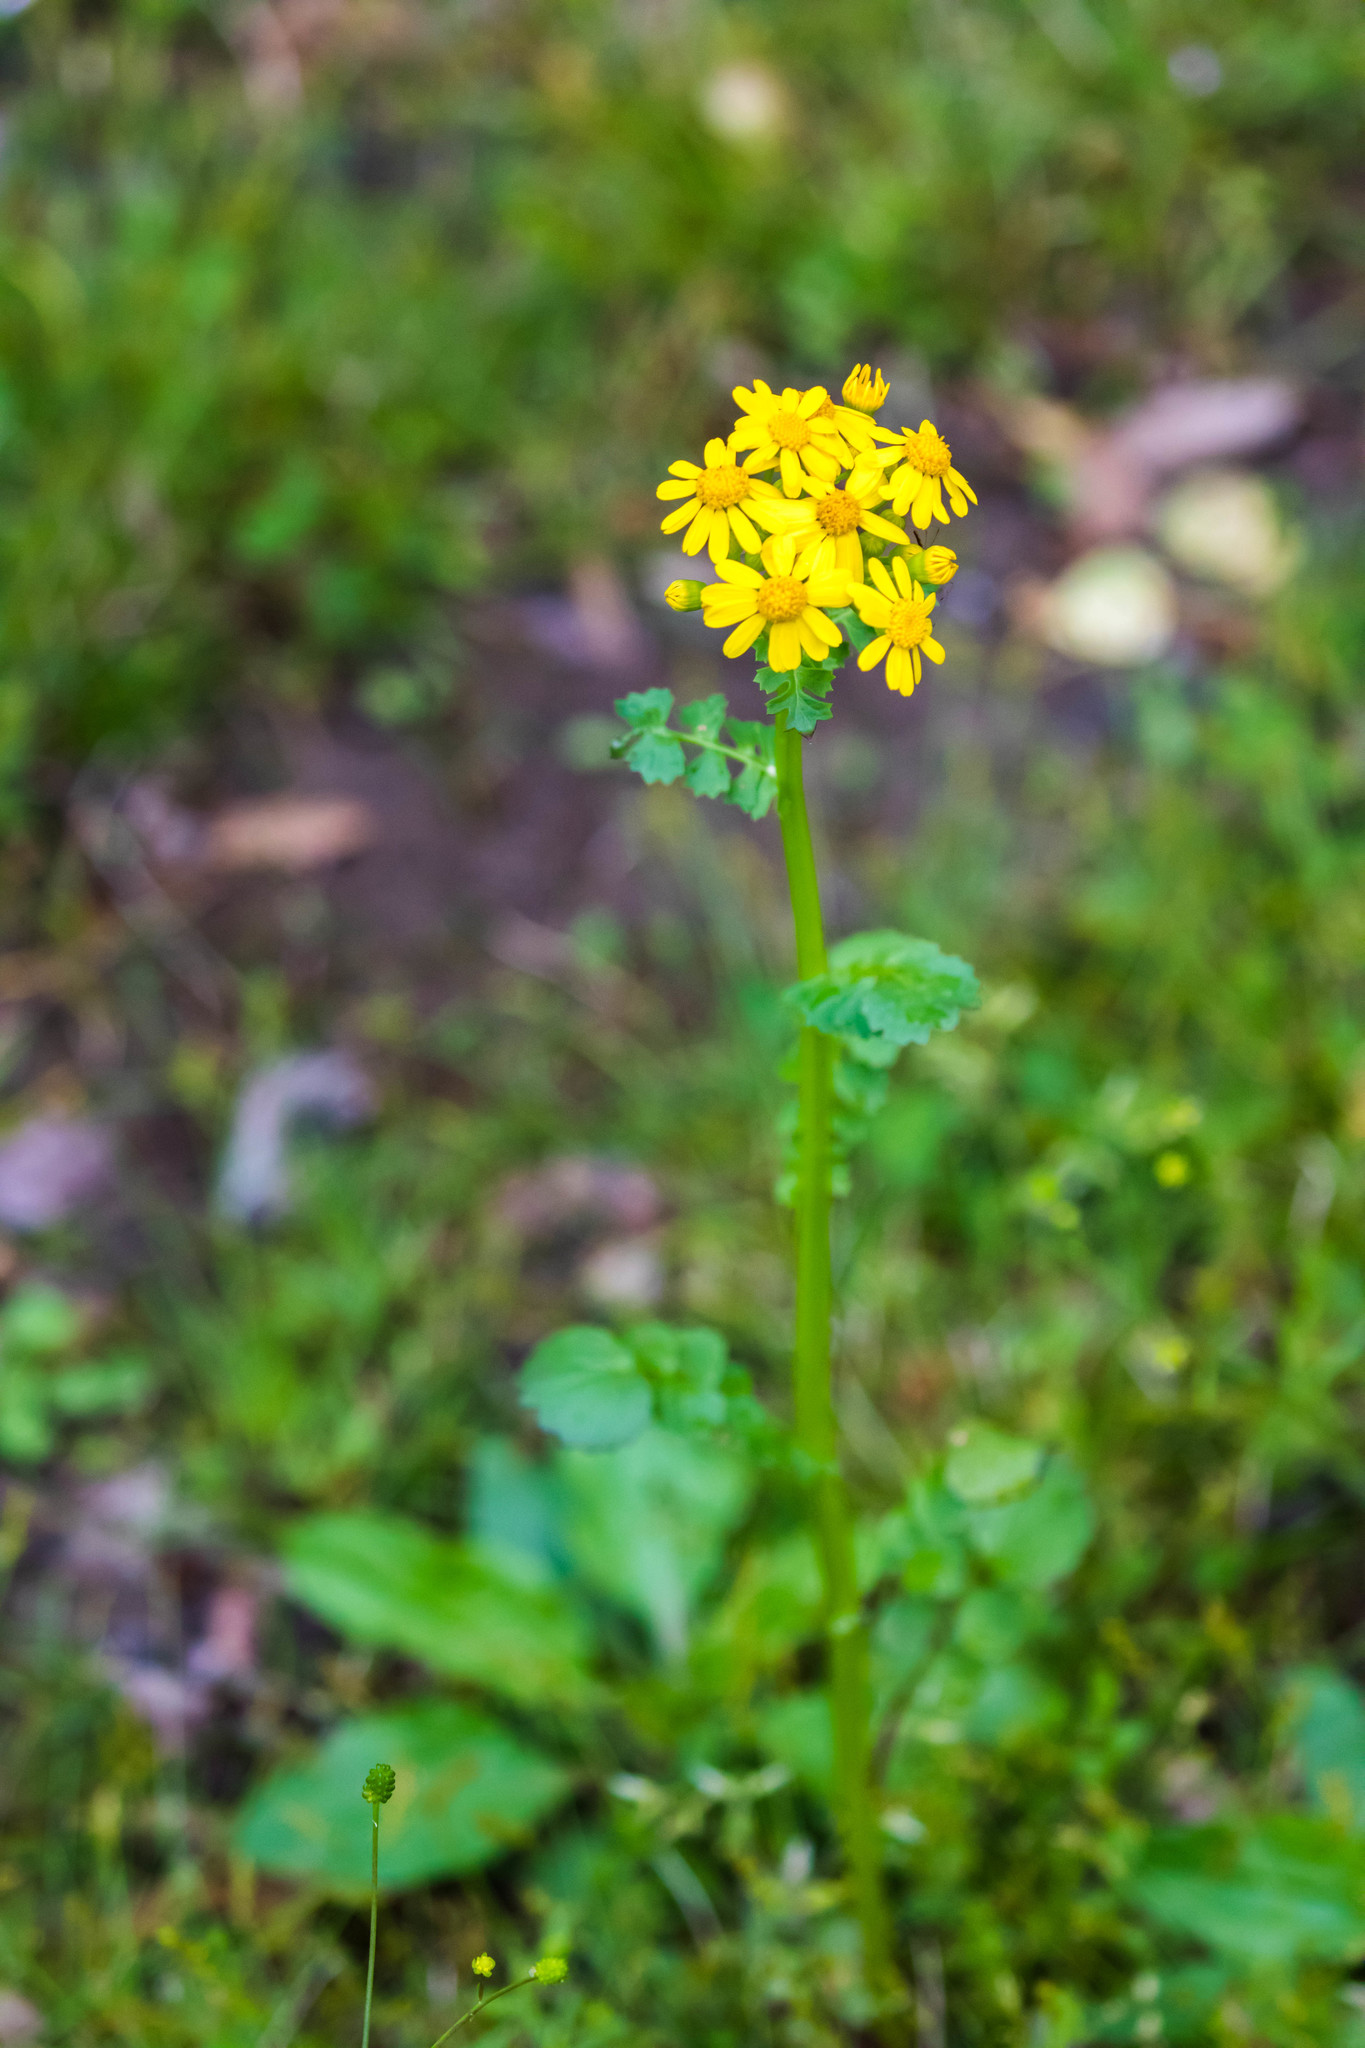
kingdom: Plantae
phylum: Tracheophyta
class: Magnoliopsida
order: Asterales
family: Asteraceae
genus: Packera
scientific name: Packera glabella
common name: Butterweed
